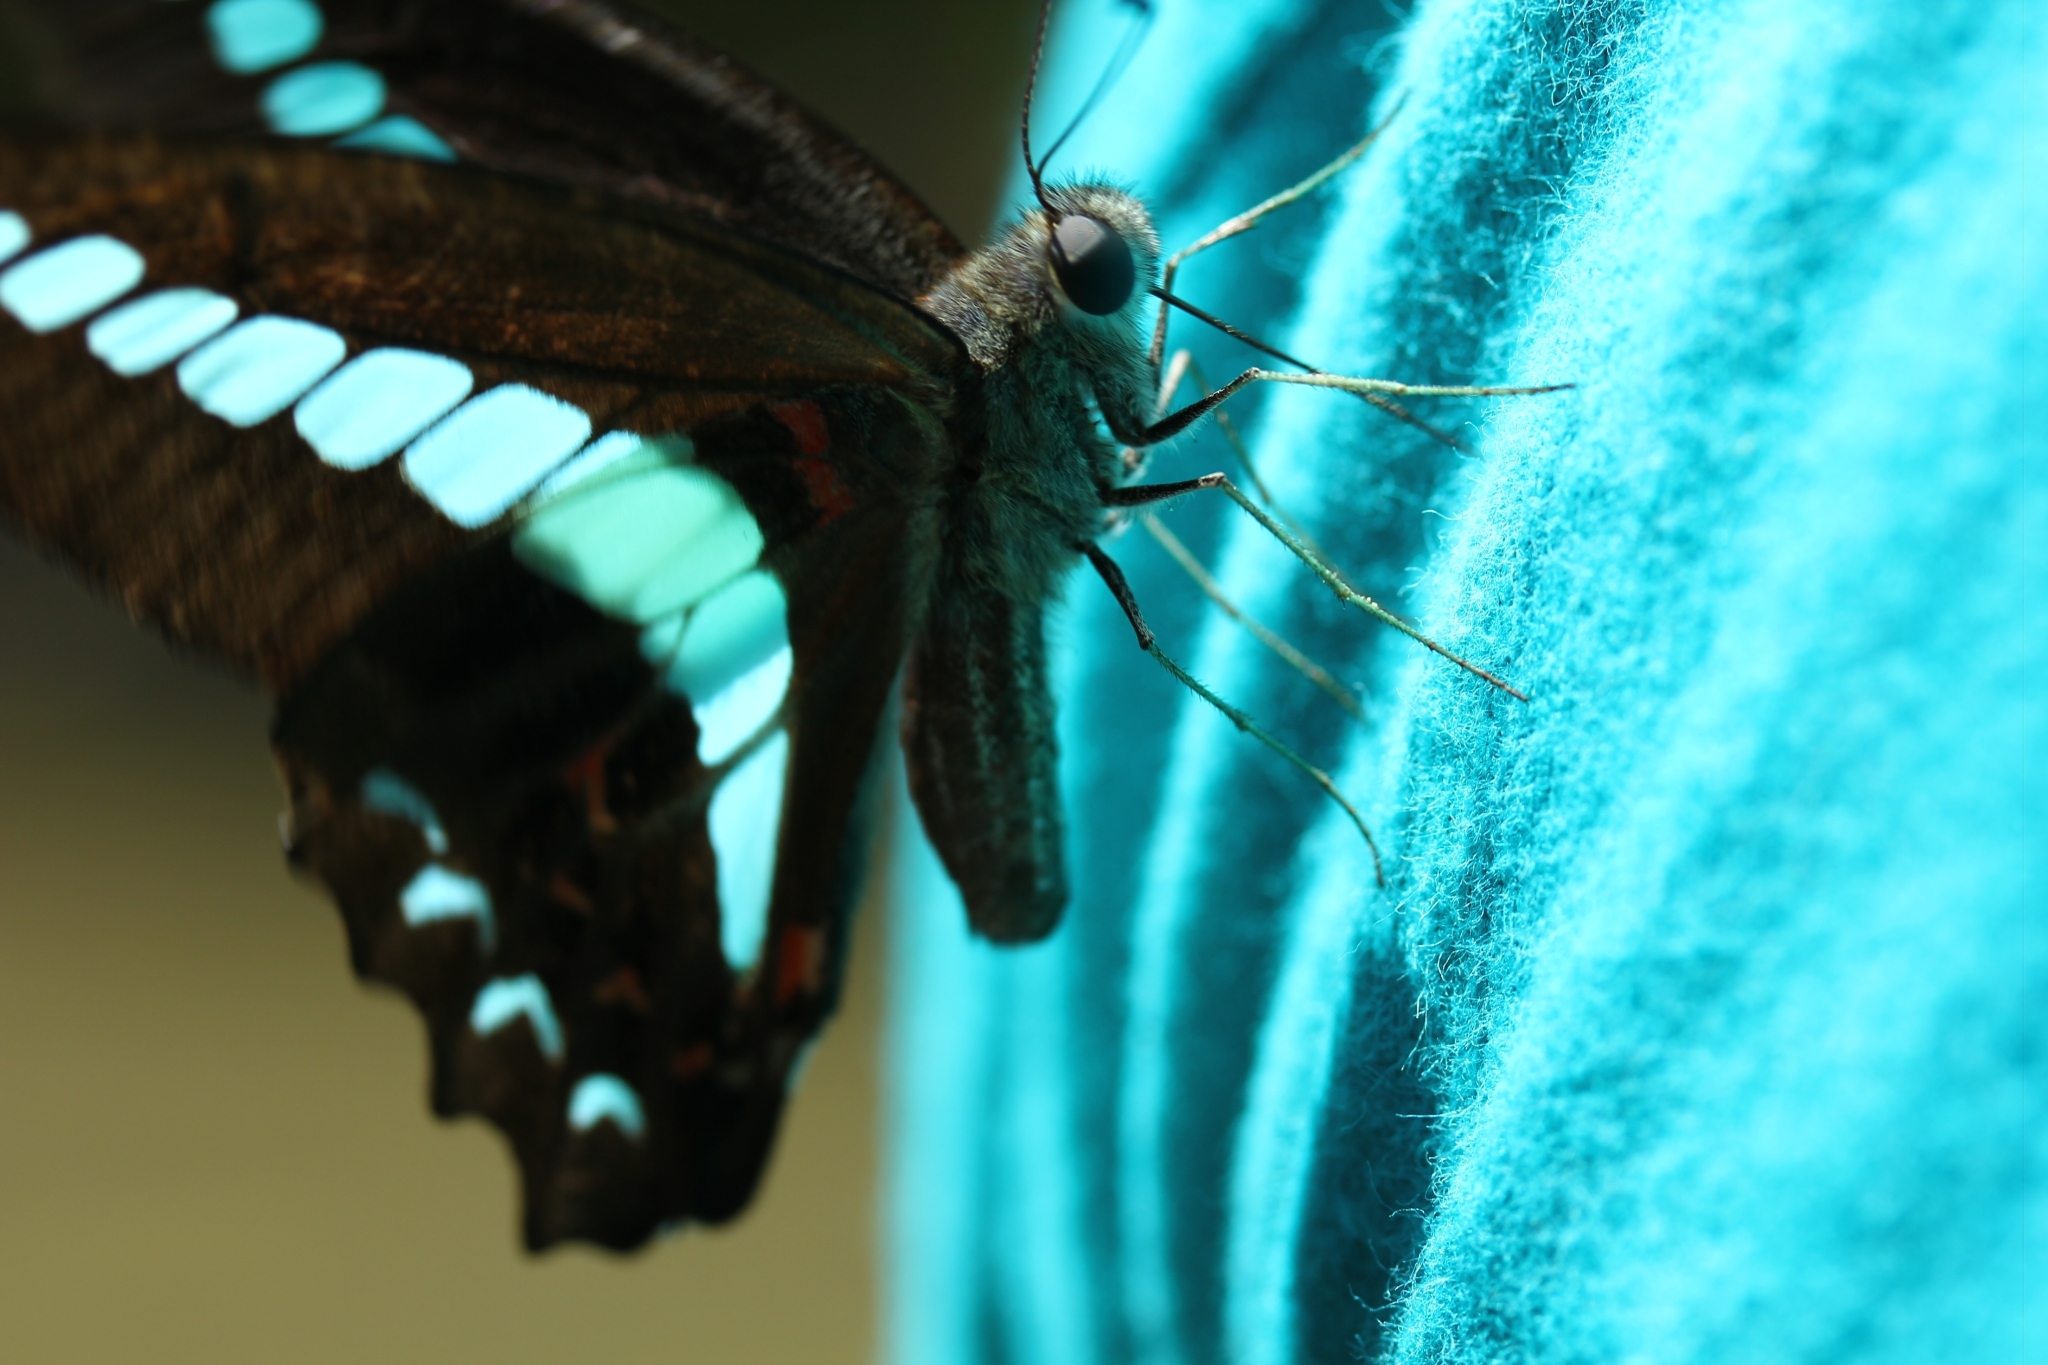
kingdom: Fungi
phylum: Ascomycota
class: Sordariomycetes
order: Microascales
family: Microascaceae
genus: Graphium
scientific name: Graphium sarpedon
